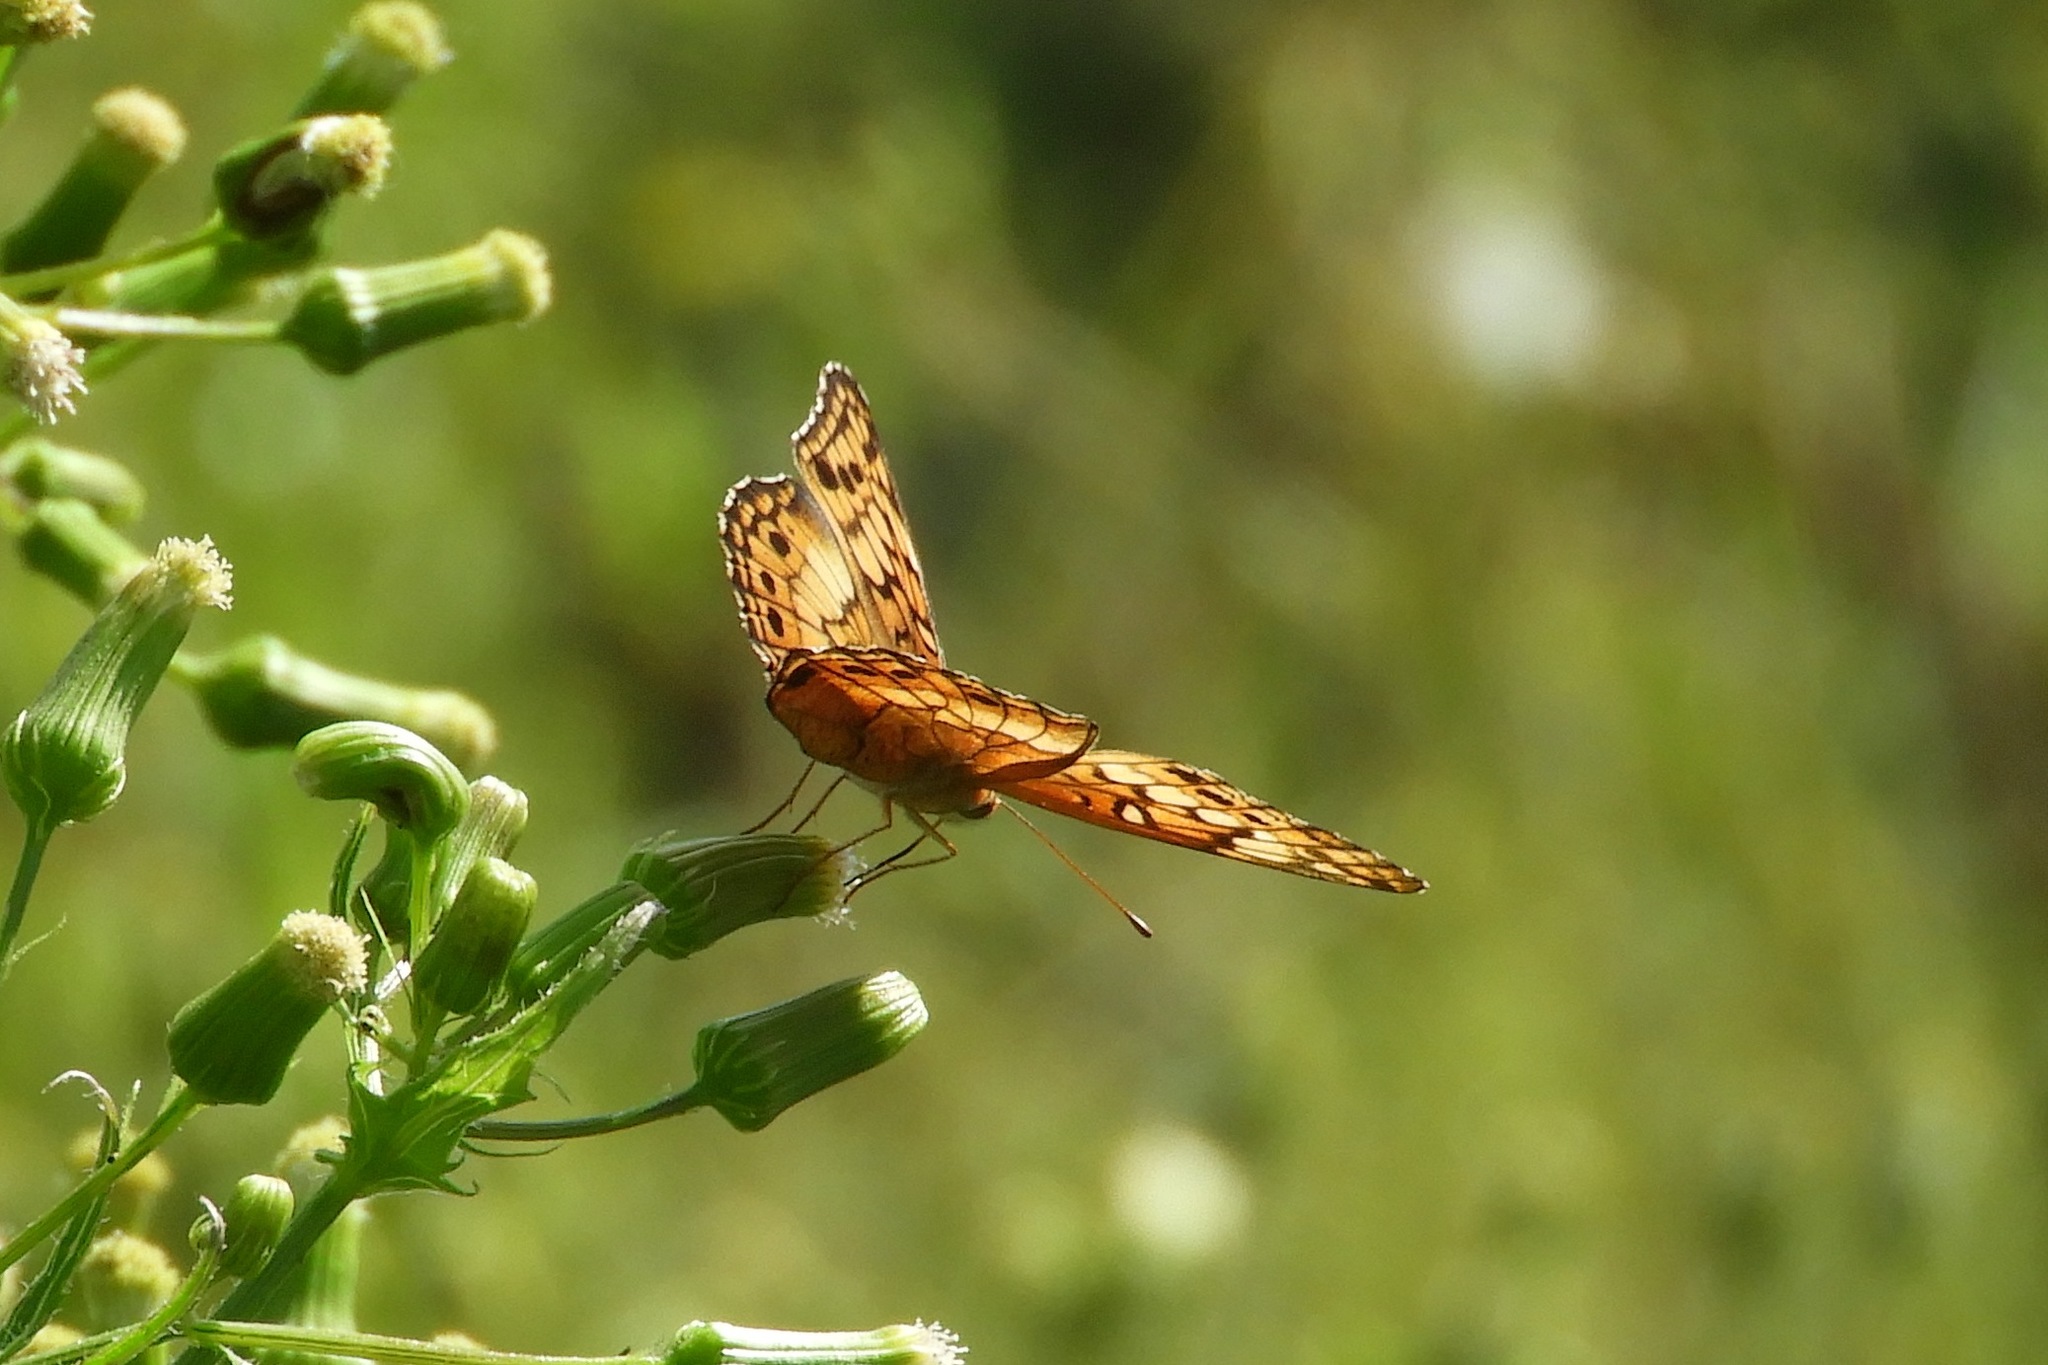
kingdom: Animalia
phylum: Arthropoda
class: Insecta
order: Lepidoptera
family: Nymphalidae
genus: Euptoieta
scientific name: Euptoieta claudia
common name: Variegated fritillary
